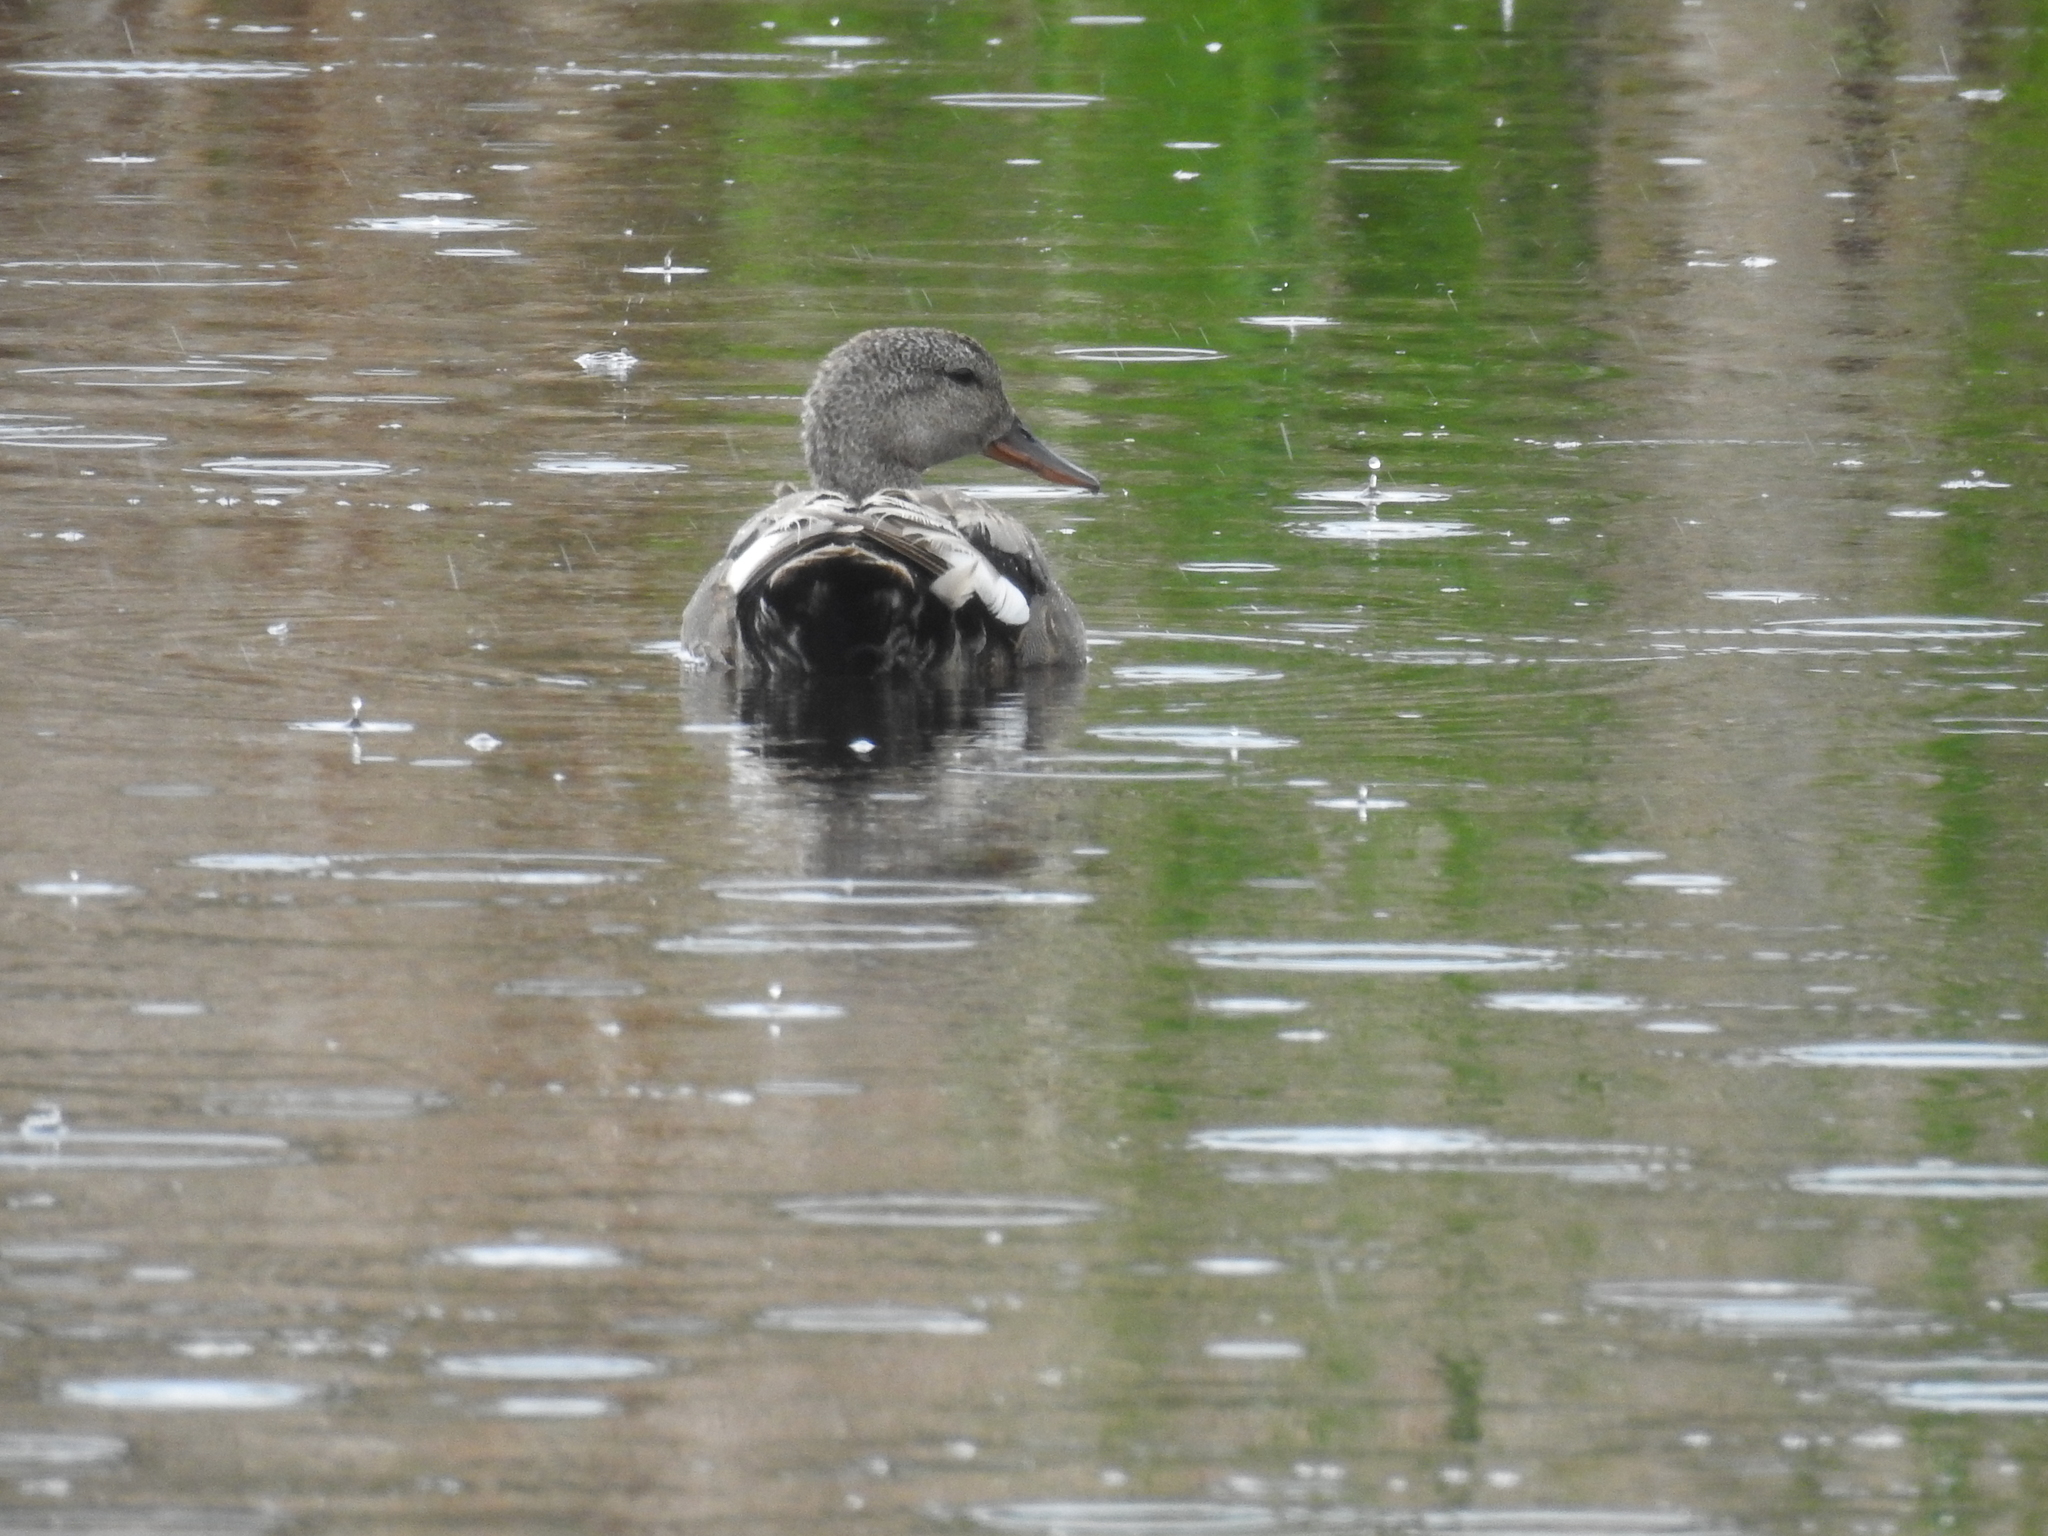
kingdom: Animalia
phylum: Chordata
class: Aves
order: Anseriformes
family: Anatidae
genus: Mareca
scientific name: Mareca strepera
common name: Gadwall
